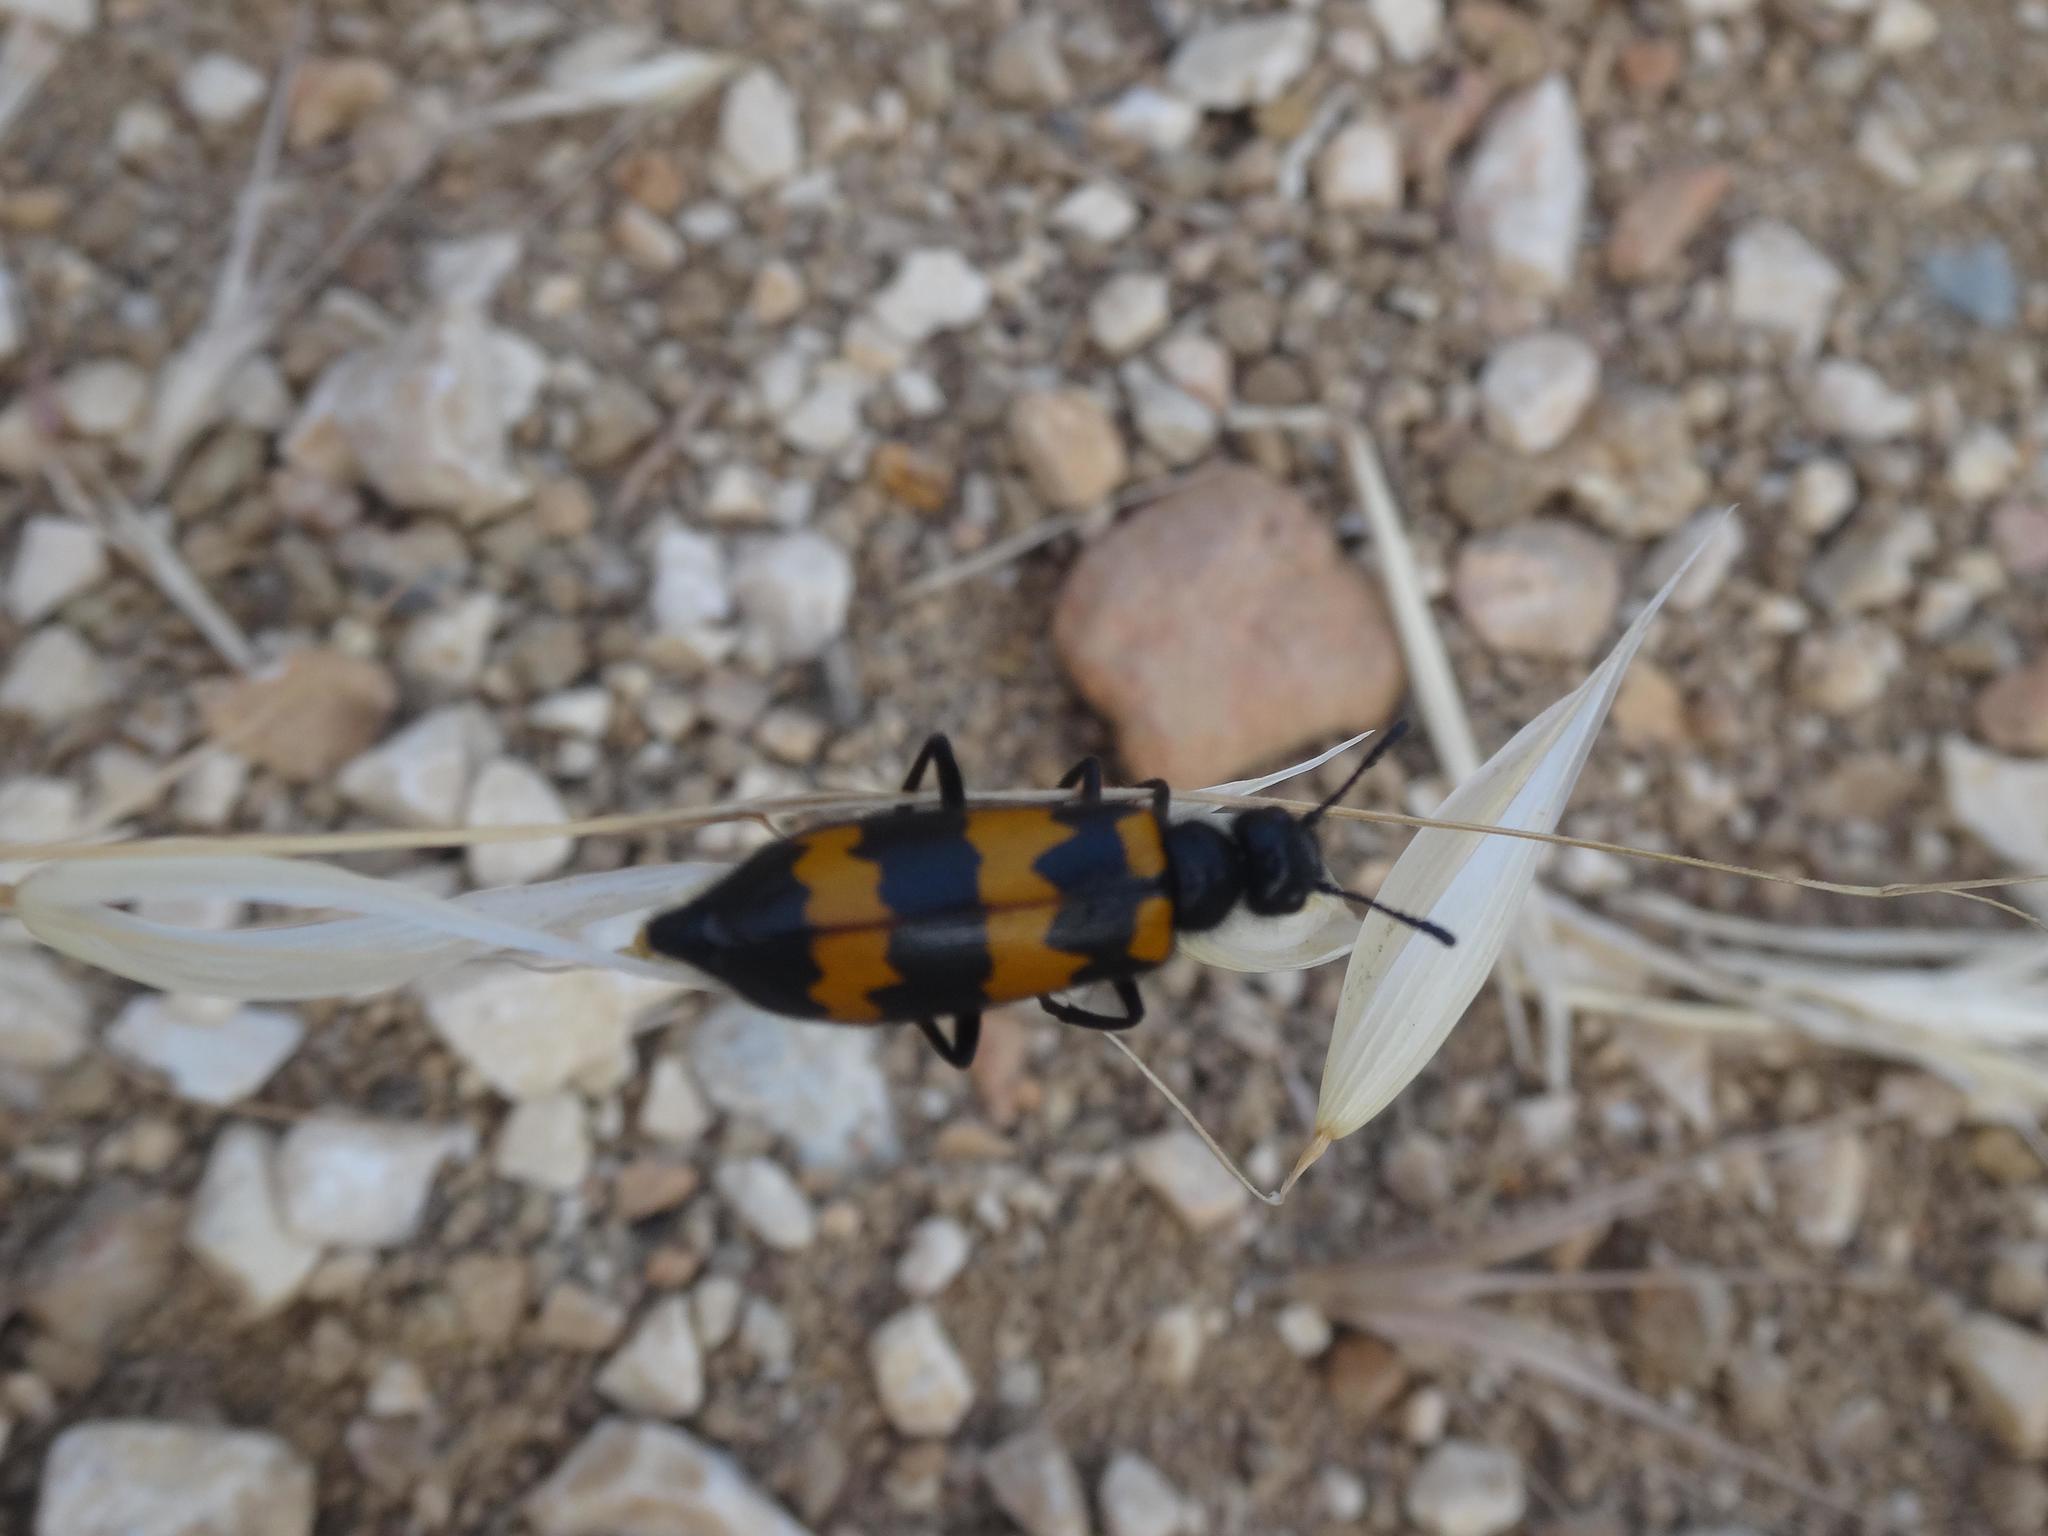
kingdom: Animalia
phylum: Arthropoda
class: Insecta
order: Coleoptera
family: Meloidae
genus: Mylabris
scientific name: Mylabris variabilis
